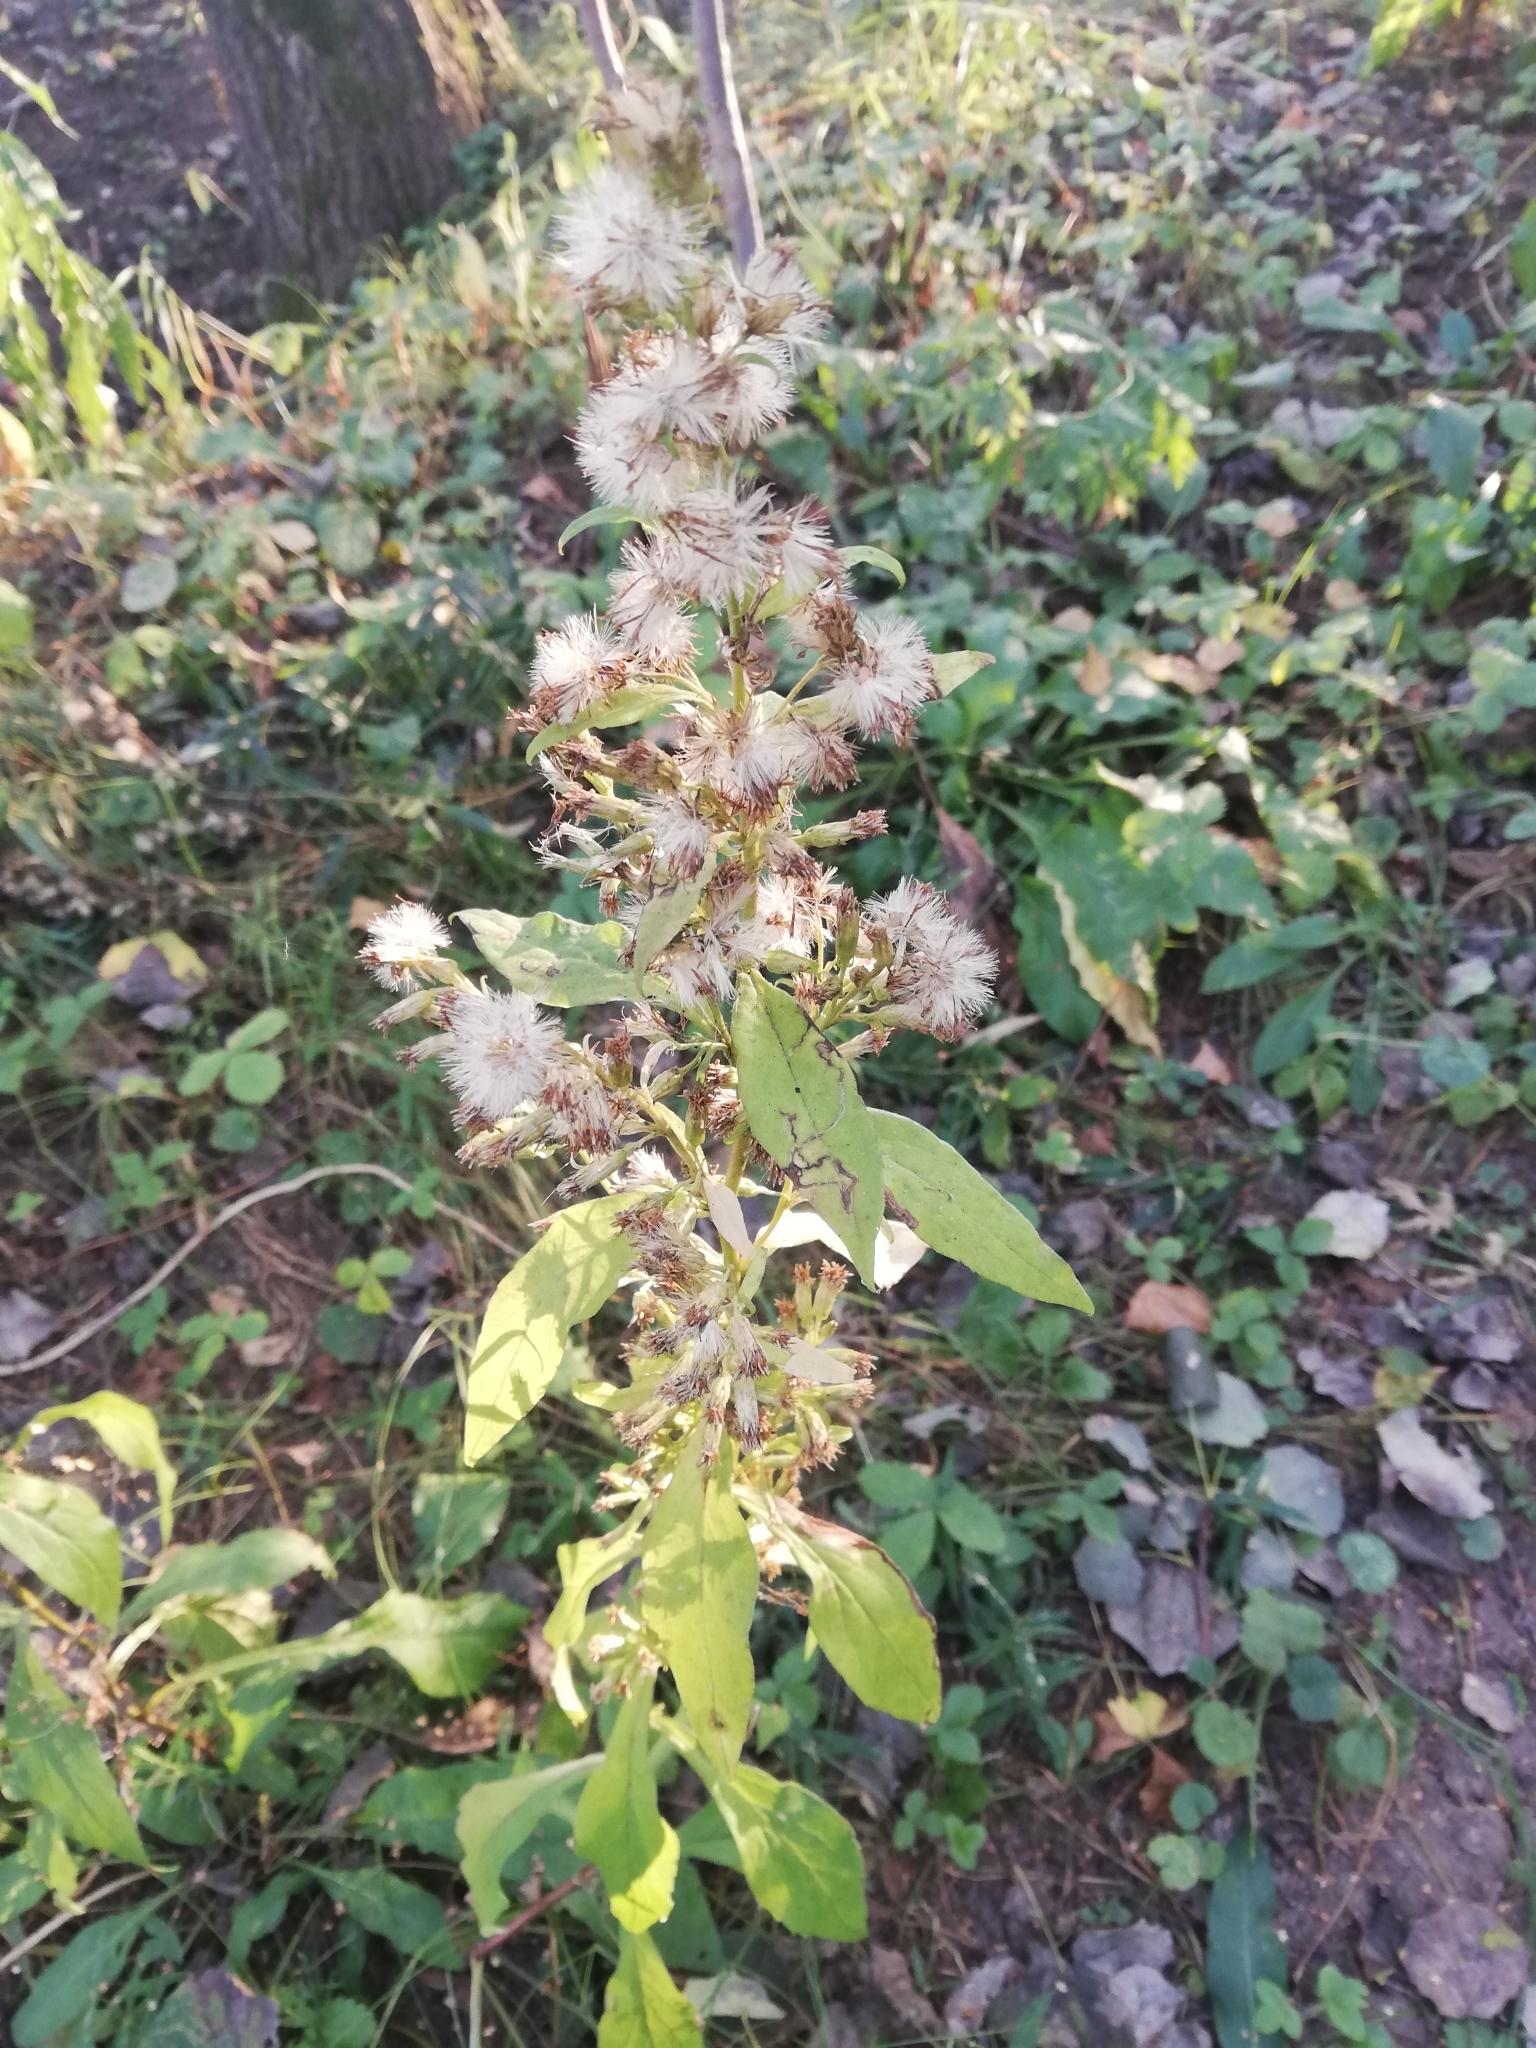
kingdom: Plantae
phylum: Tracheophyta
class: Magnoliopsida
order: Asterales
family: Asteraceae
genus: Solidago
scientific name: Solidago virgaurea
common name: Goldenrod
